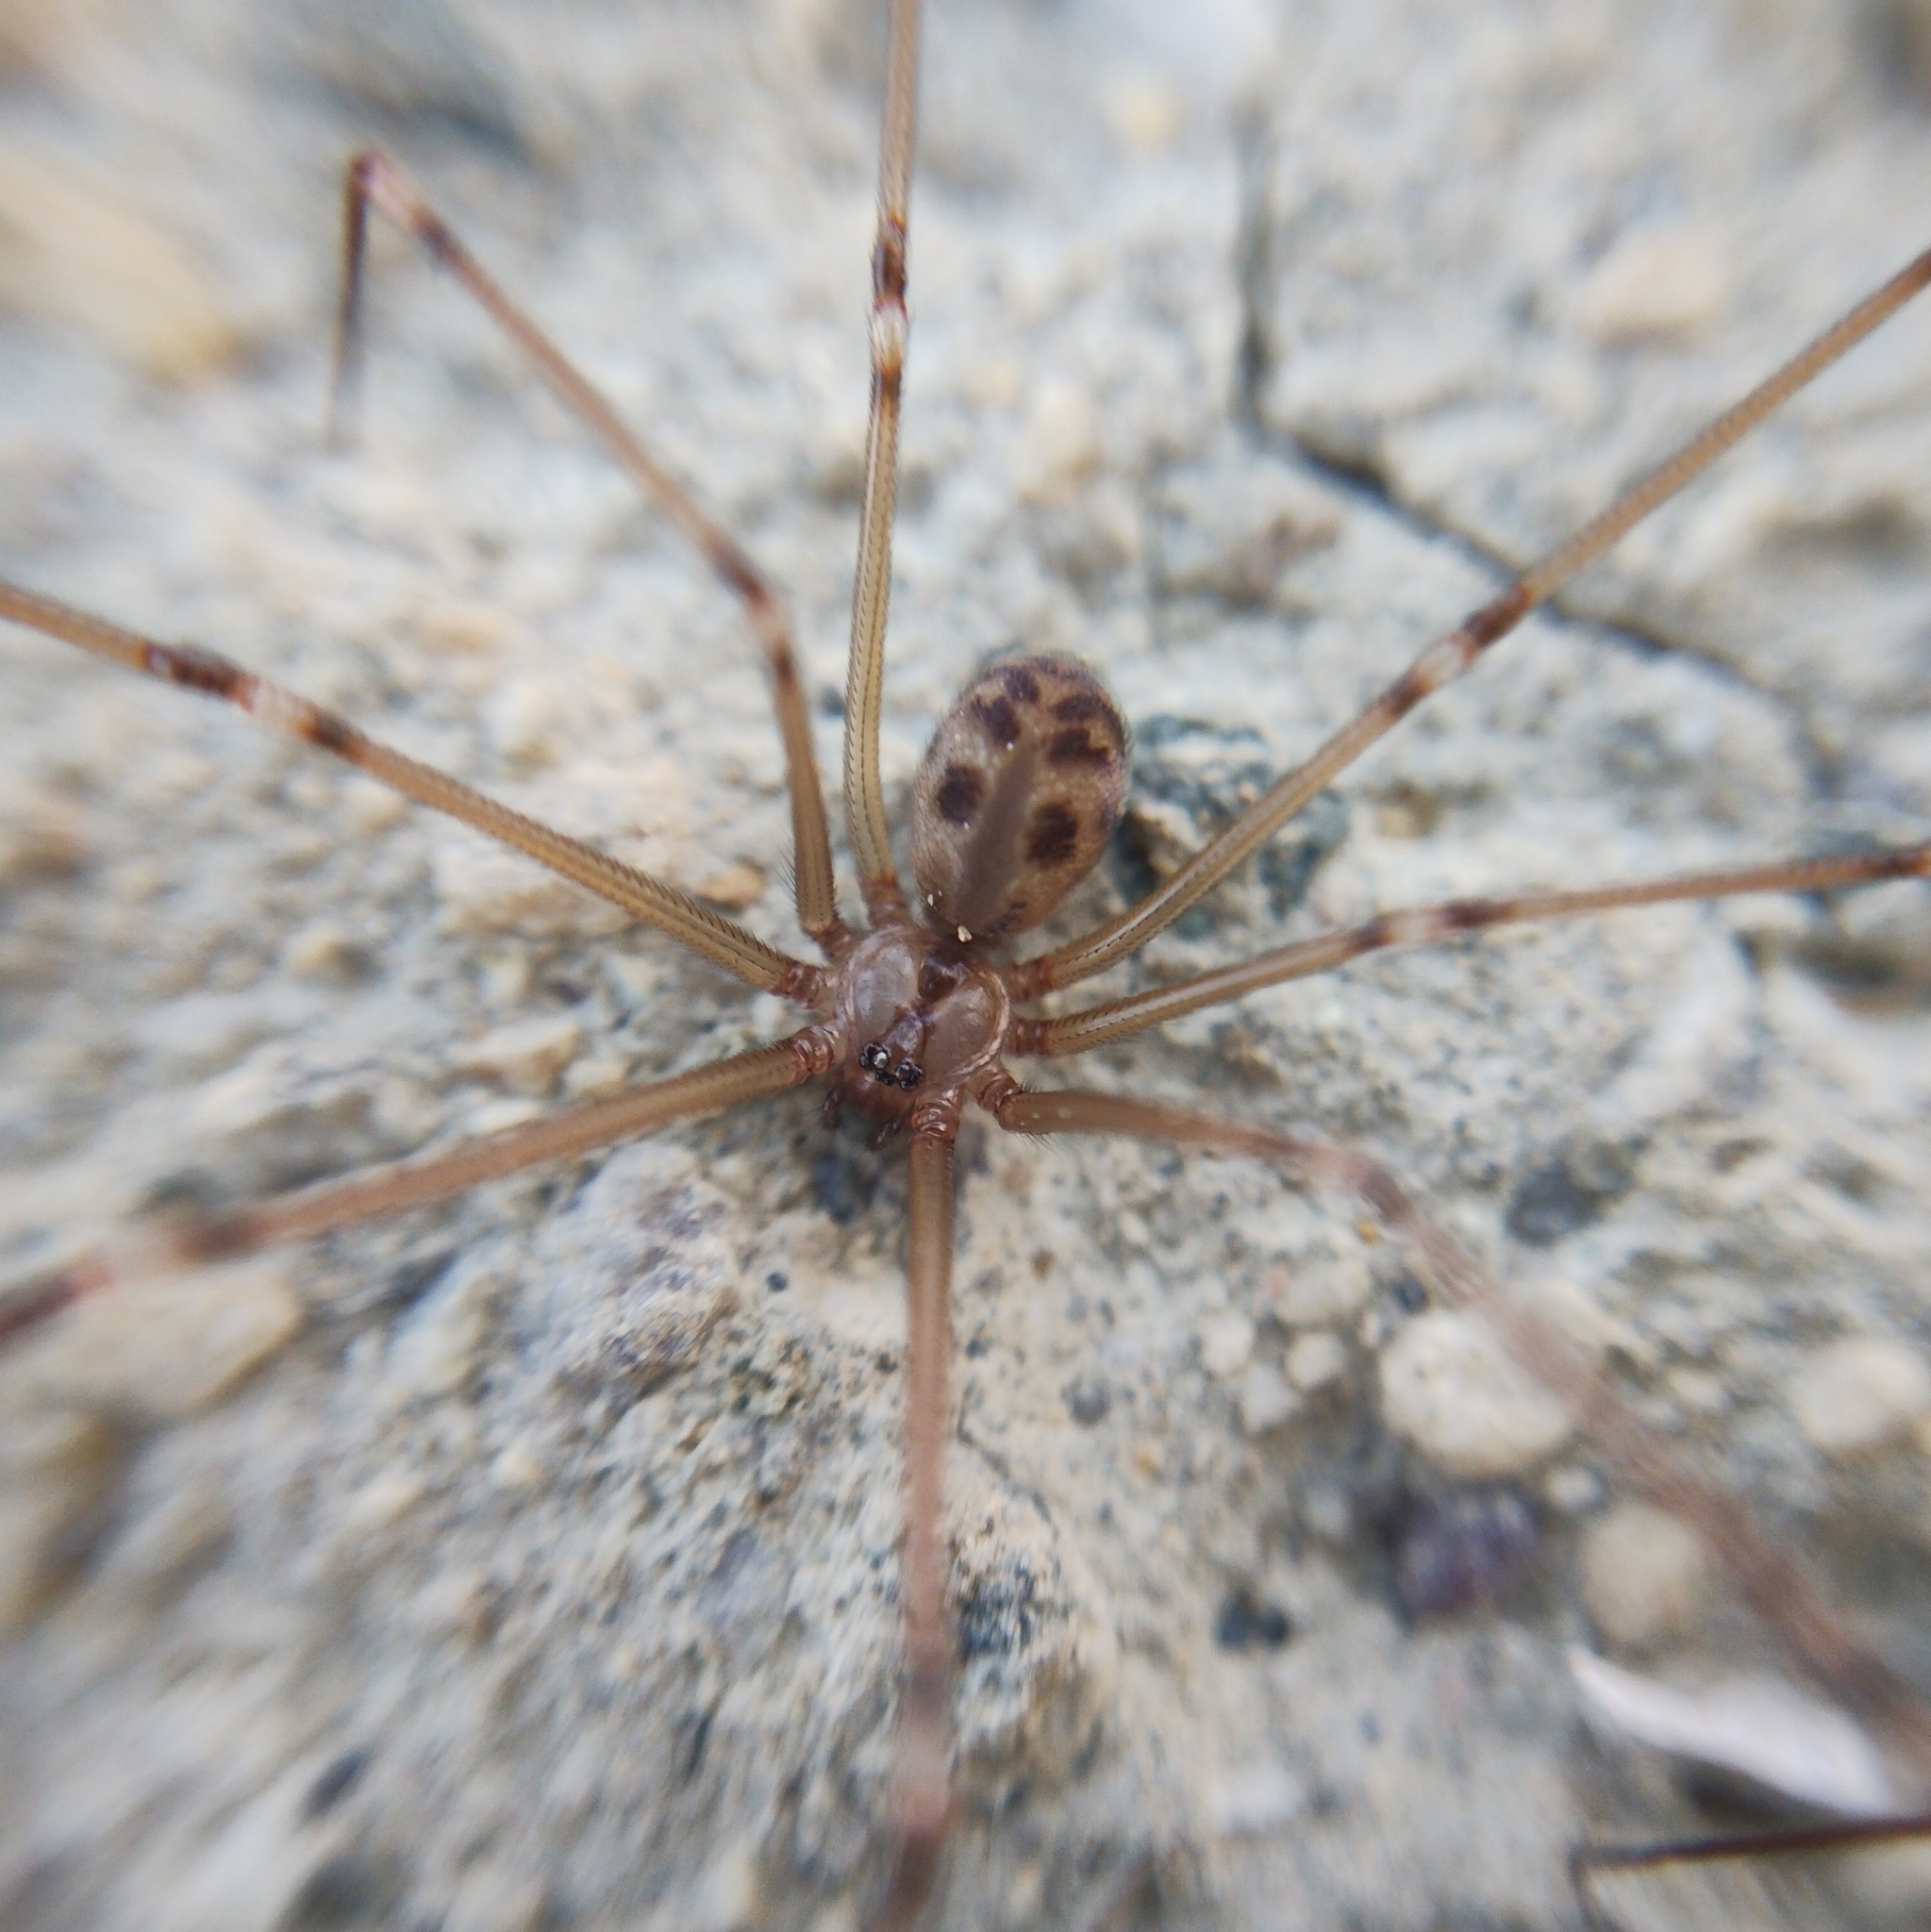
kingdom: Animalia
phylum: Arthropoda
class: Arachnida
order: Araneae
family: Pholcidae
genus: Hoplopholcus
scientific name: Hoplopholcus forskali
